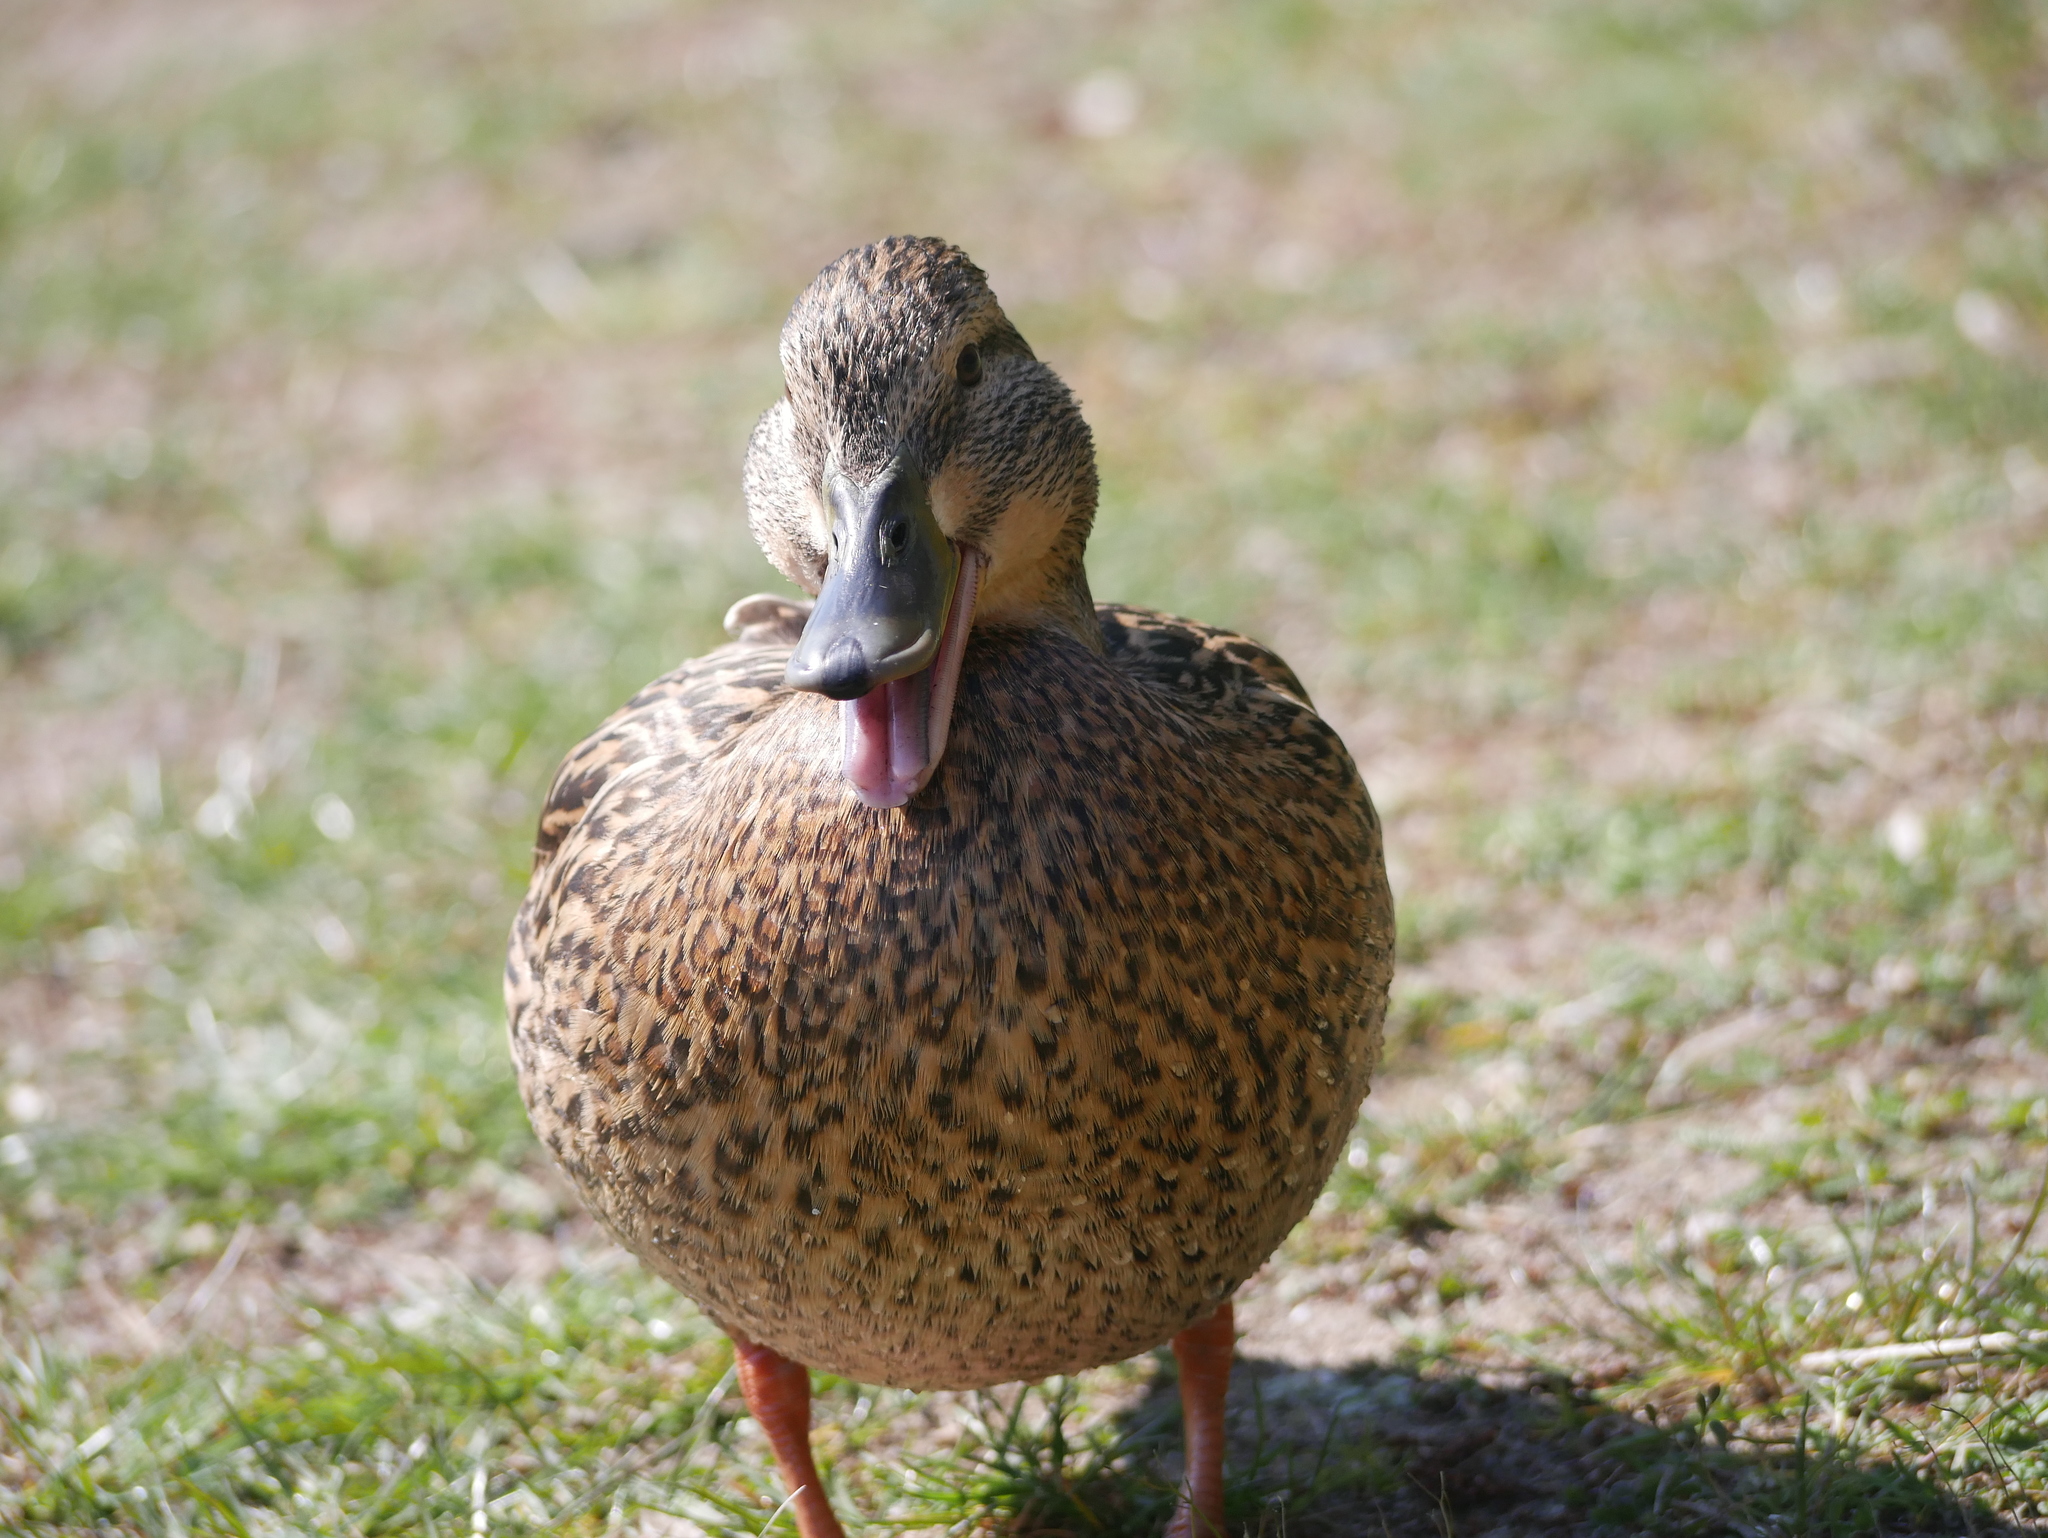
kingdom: Animalia
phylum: Chordata
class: Aves
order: Anseriformes
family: Anatidae
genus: Anas
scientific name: Anas platyrhynchos
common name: Mallard
